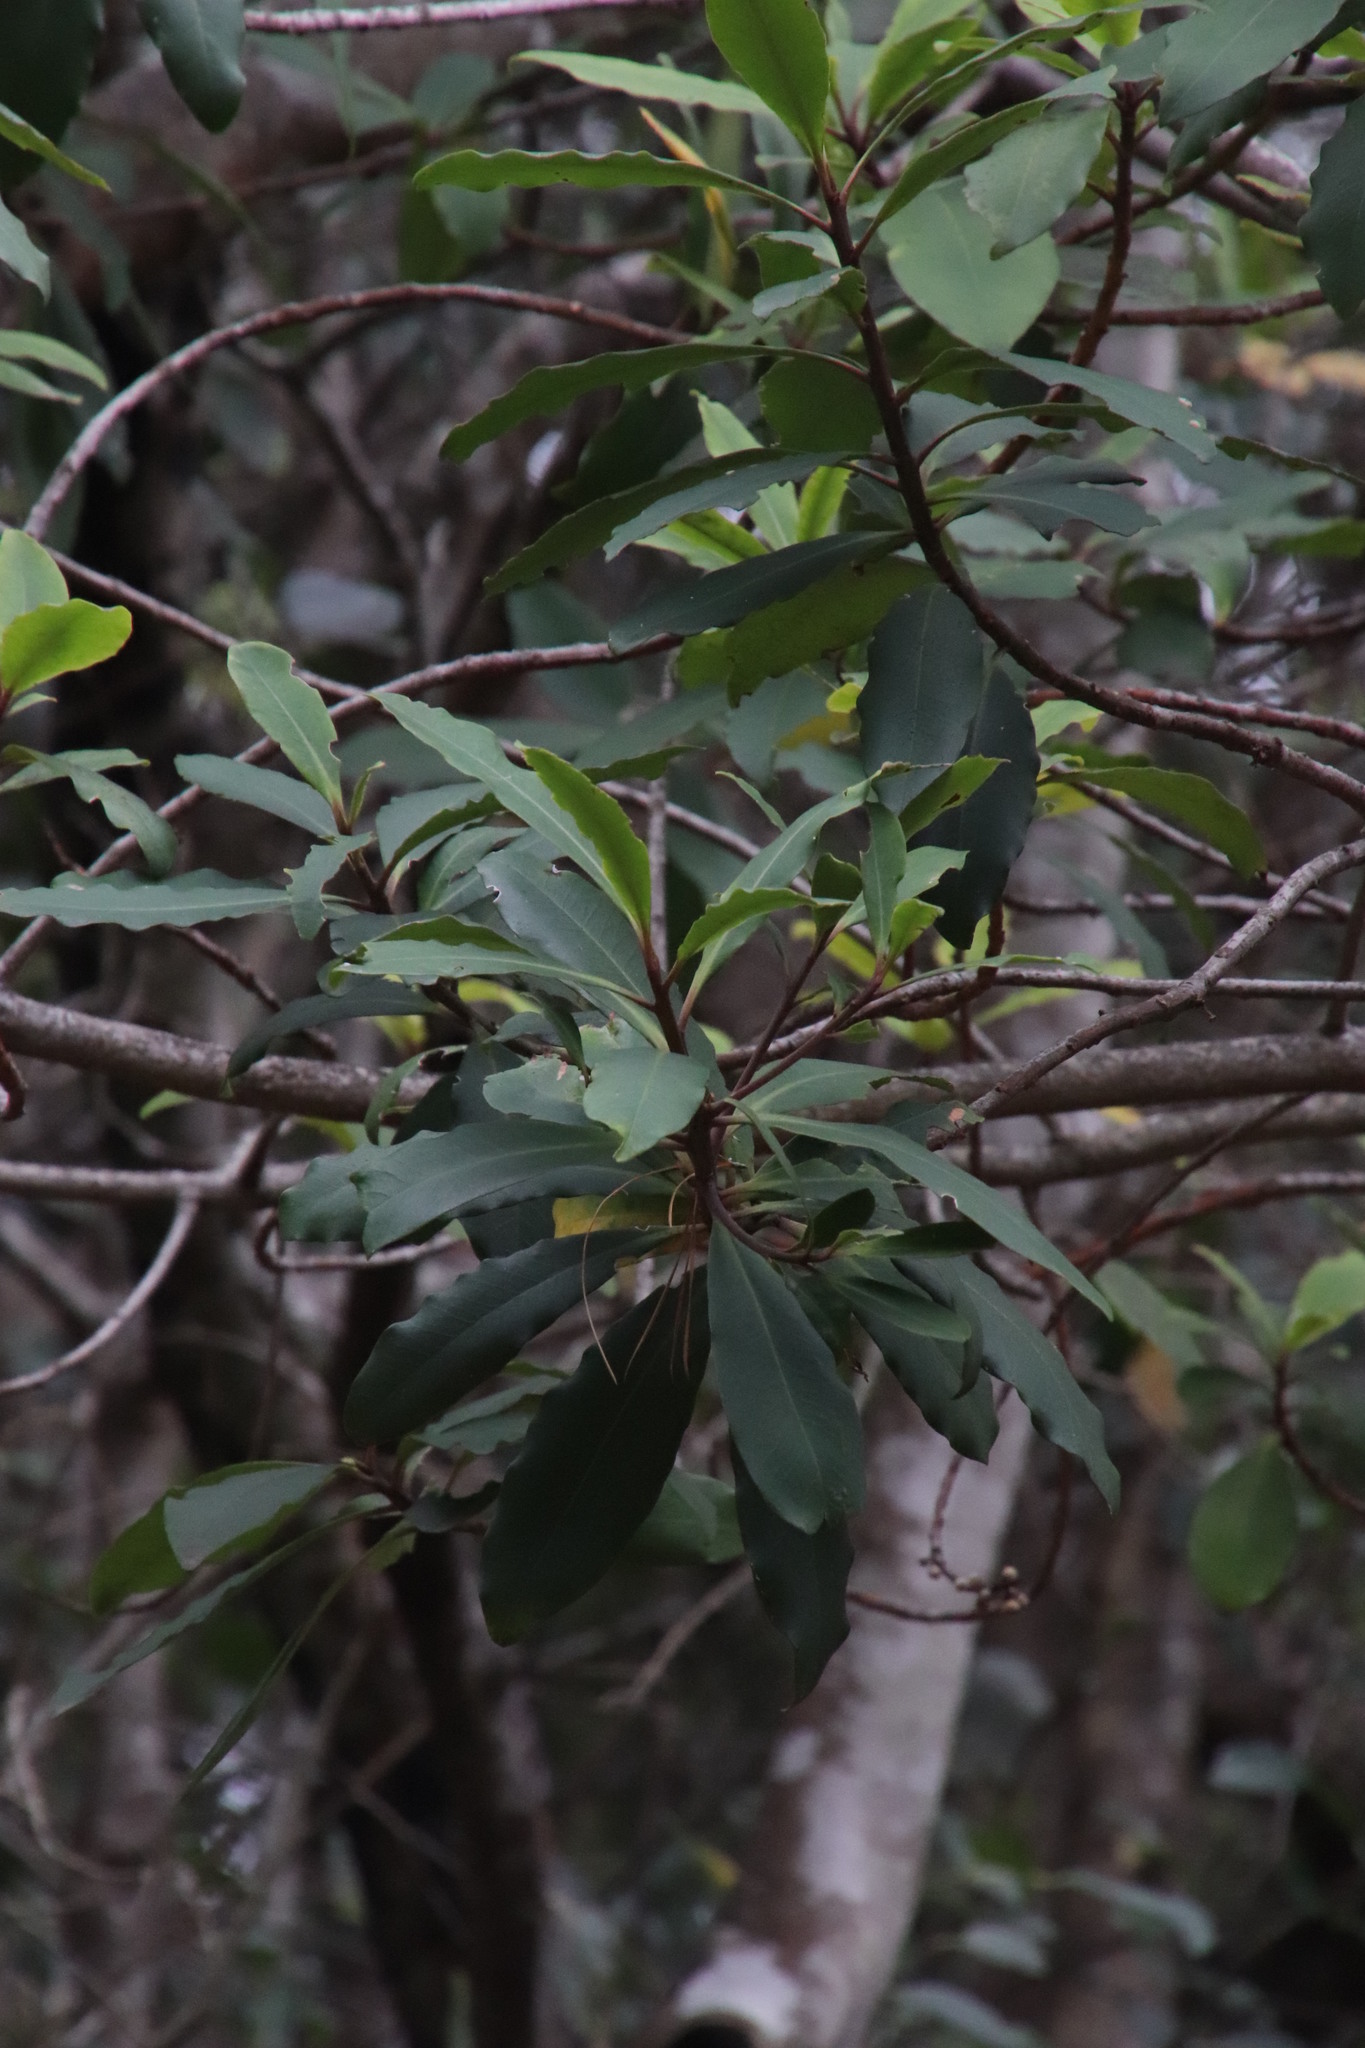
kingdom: Plantae
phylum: Tracheophyta
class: Magnoliopsida
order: Ericales
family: Primulaceae
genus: Myrsine
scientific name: Myrsine melanophloeos
